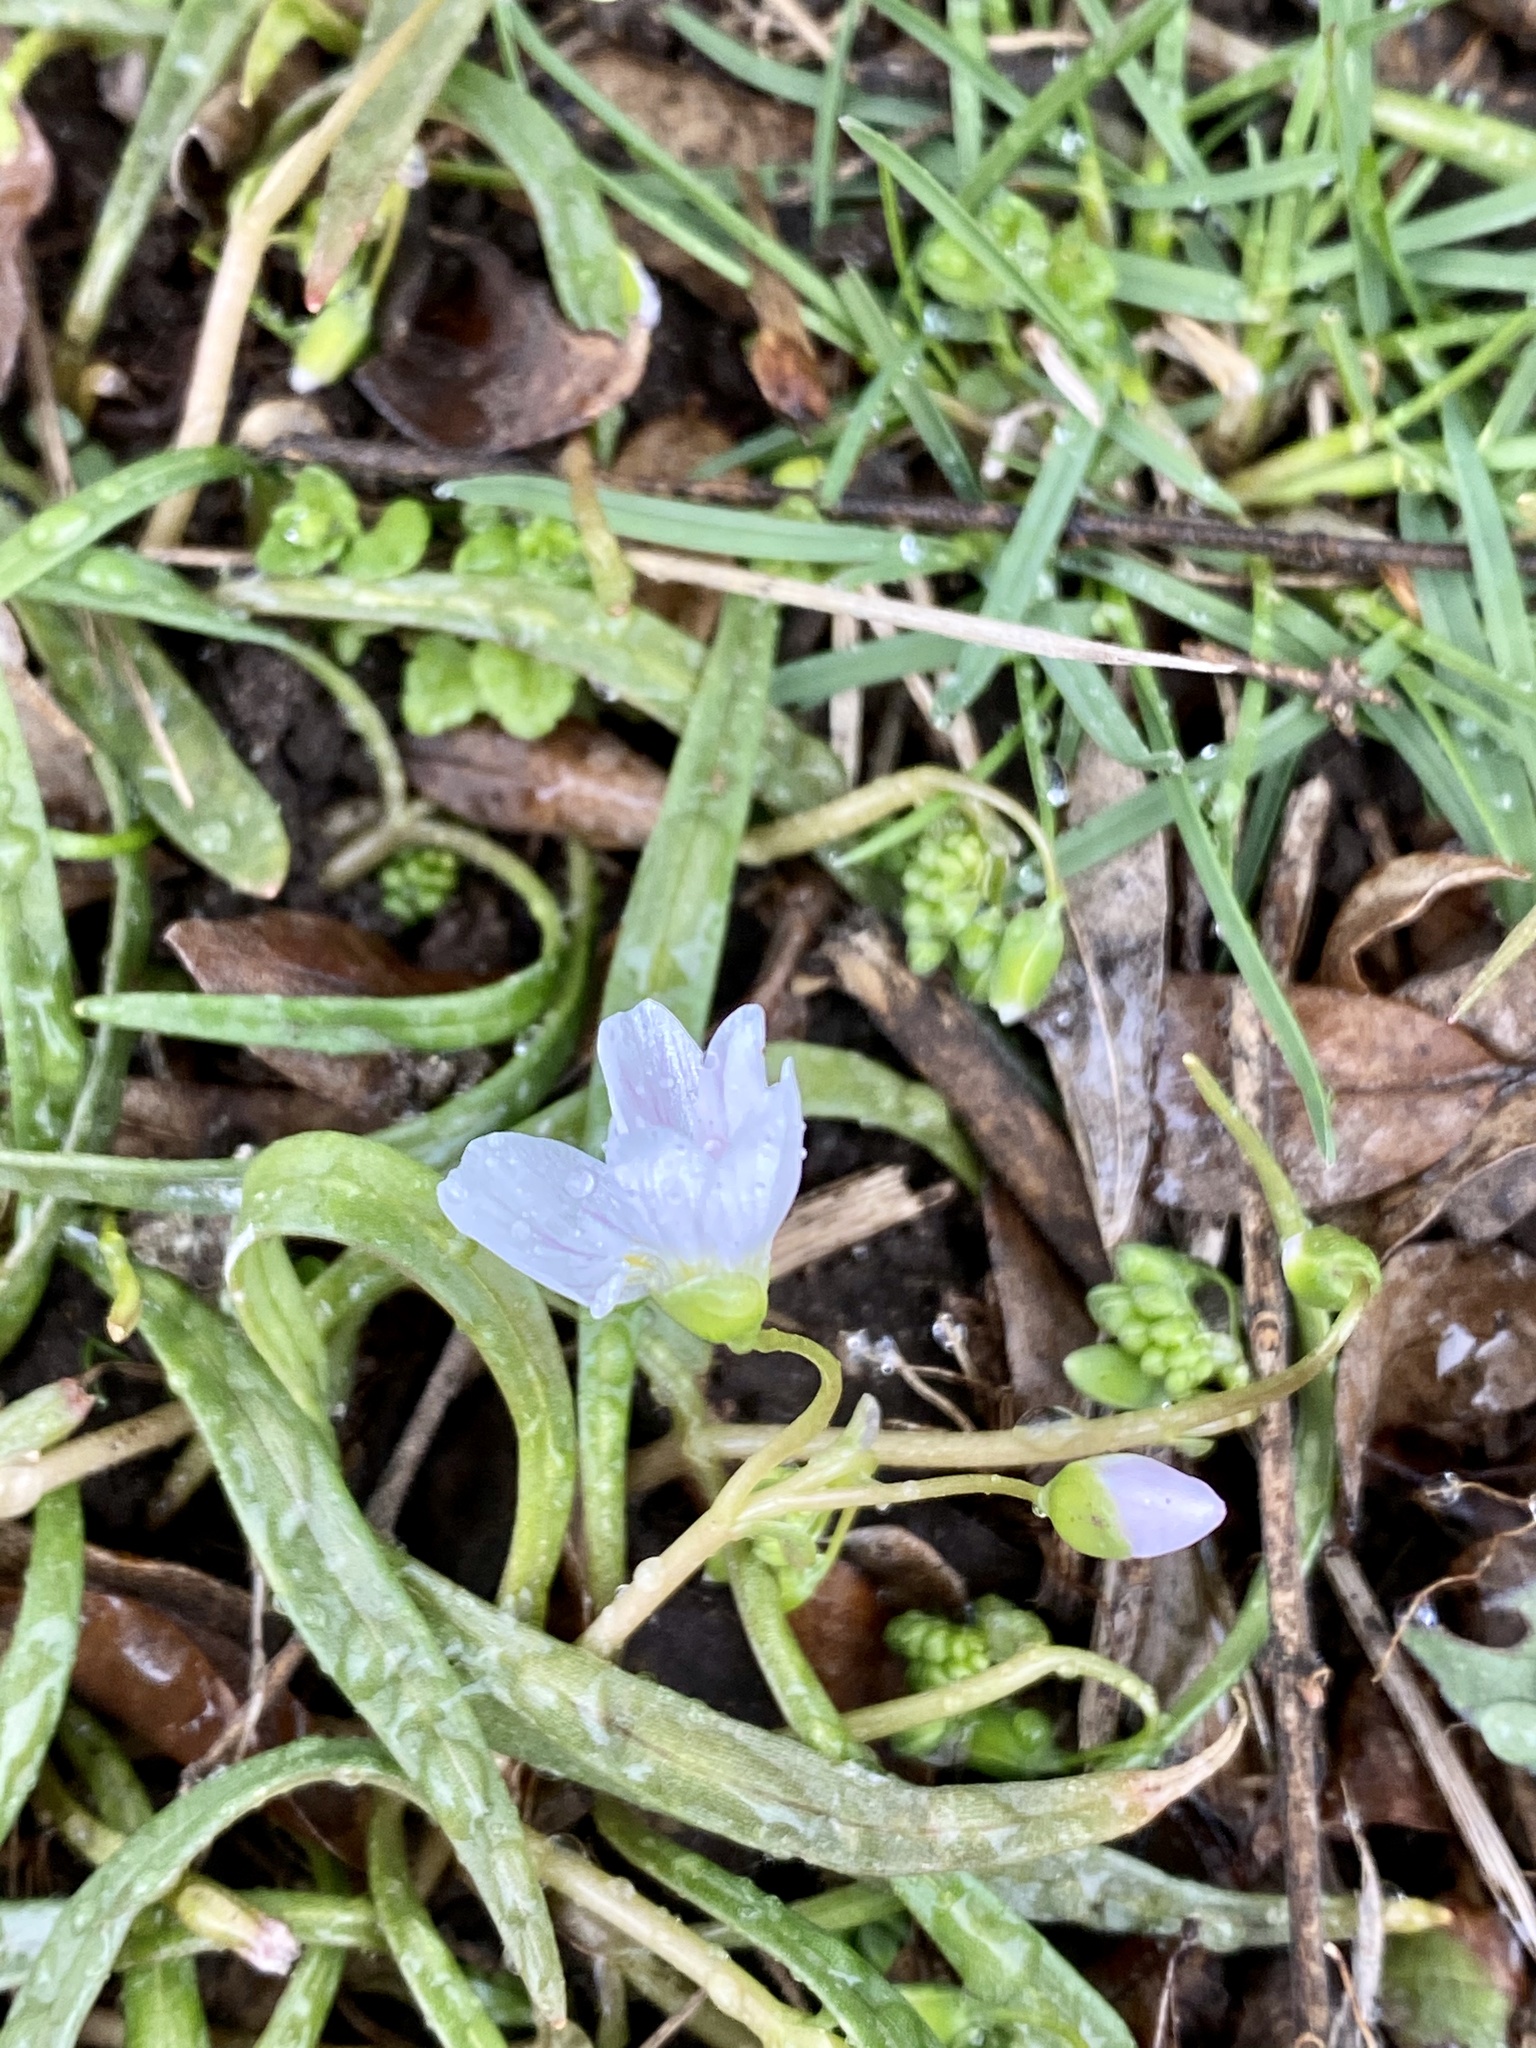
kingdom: Plantae
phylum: Tracheophyta
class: Magnoliopsida
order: Caryophyllales
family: Montiaceae
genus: Claytonia
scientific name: Claytonia virginica
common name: Virginia springbeauty
